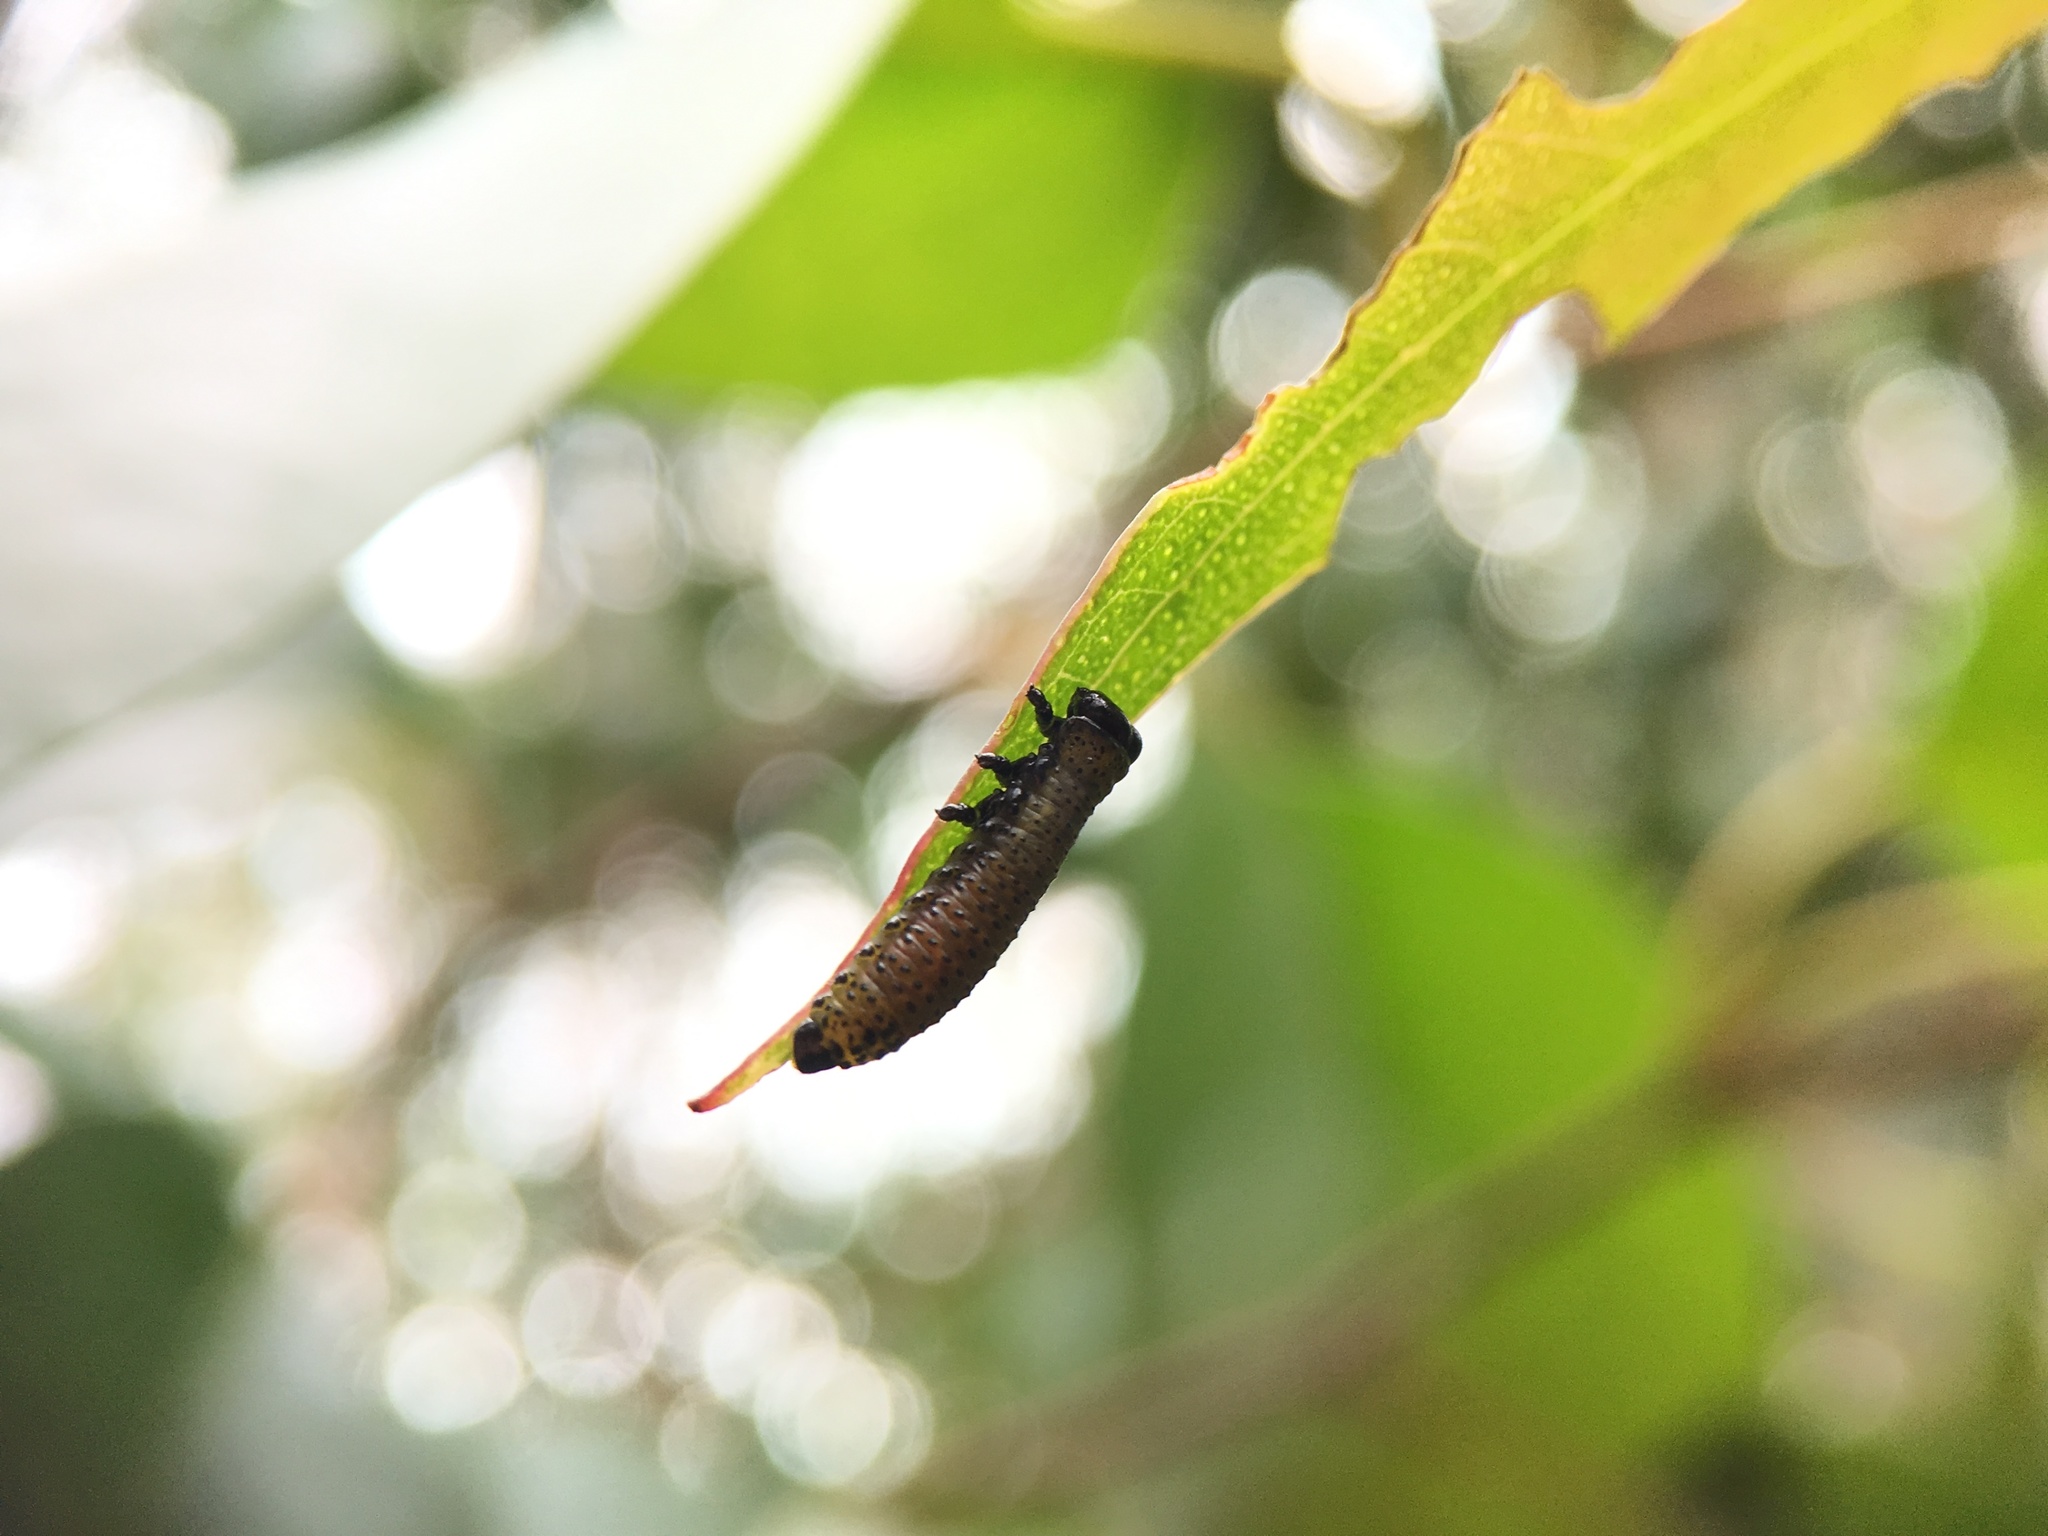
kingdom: Animalia
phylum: Arthropoda
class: Insecta
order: Coleoptera
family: Chrysomelidae
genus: Paropsis
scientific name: Paropsis charybdis
